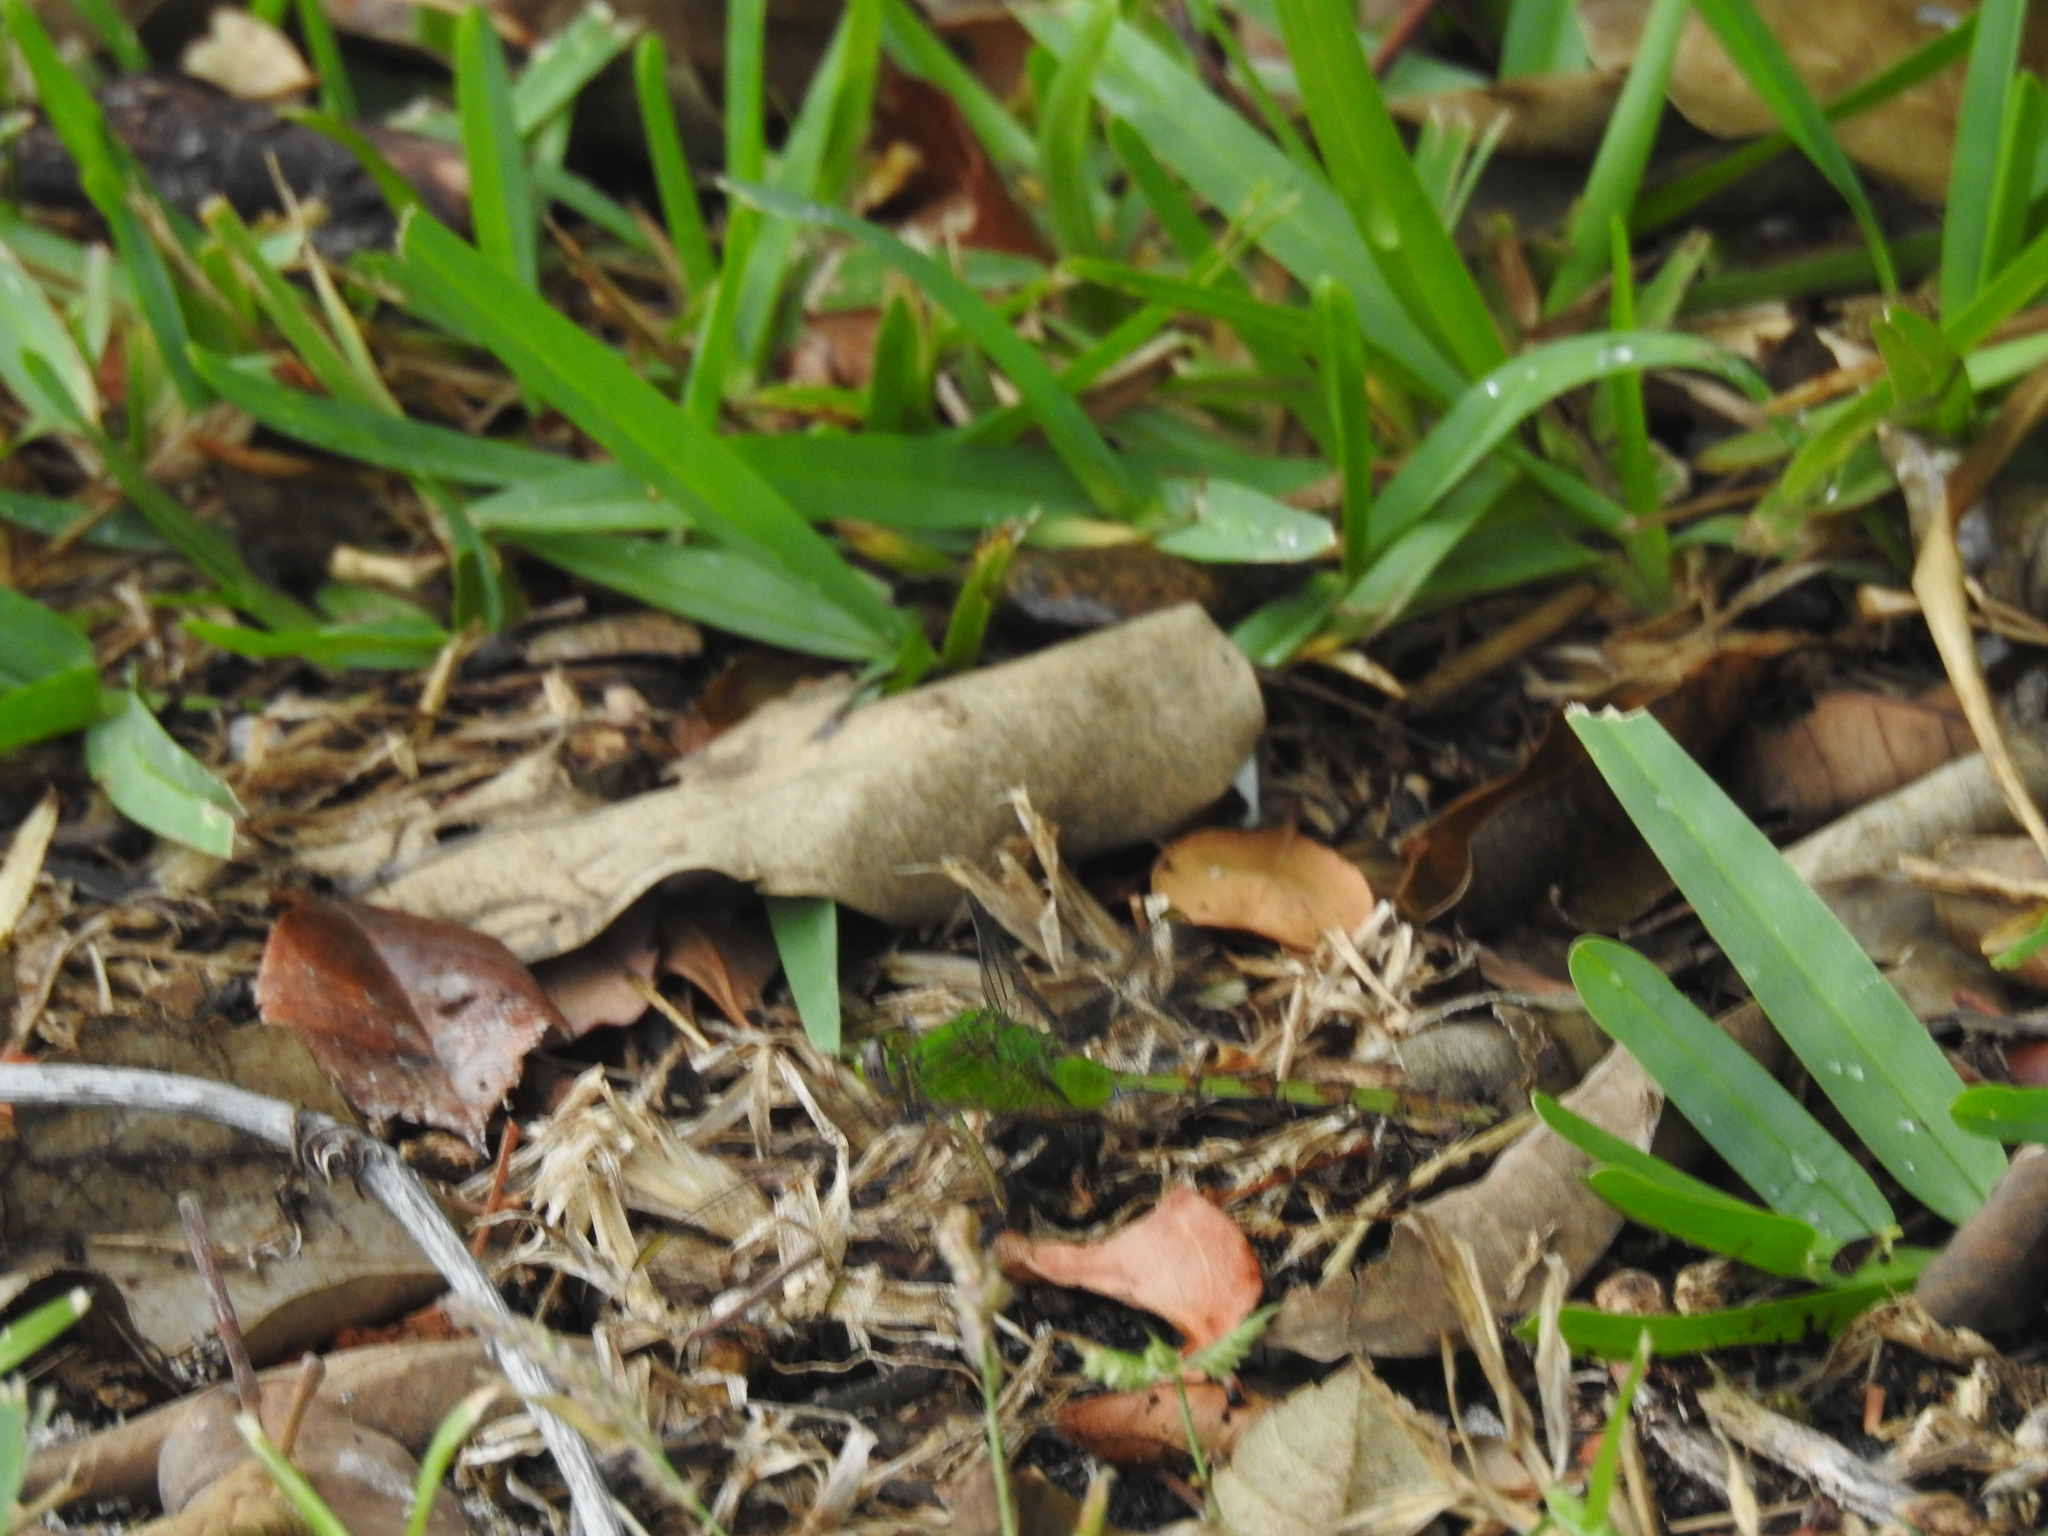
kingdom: Animalia
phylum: Arthropoda
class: Insecta
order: Odonata
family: Libellulidae
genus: Erythemis
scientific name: Erythemis vesiculosa
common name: Great pondhawk
